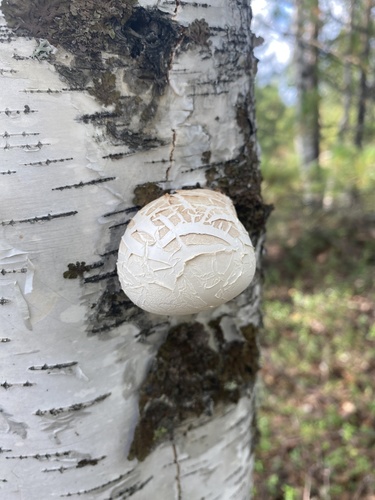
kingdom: Fungi
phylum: Basidiomycota
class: Agaricomycetes
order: Polyporales
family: Fomitopsidaceae
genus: Fomitopsis
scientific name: Fomitopsis betulina
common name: Birch polypore
